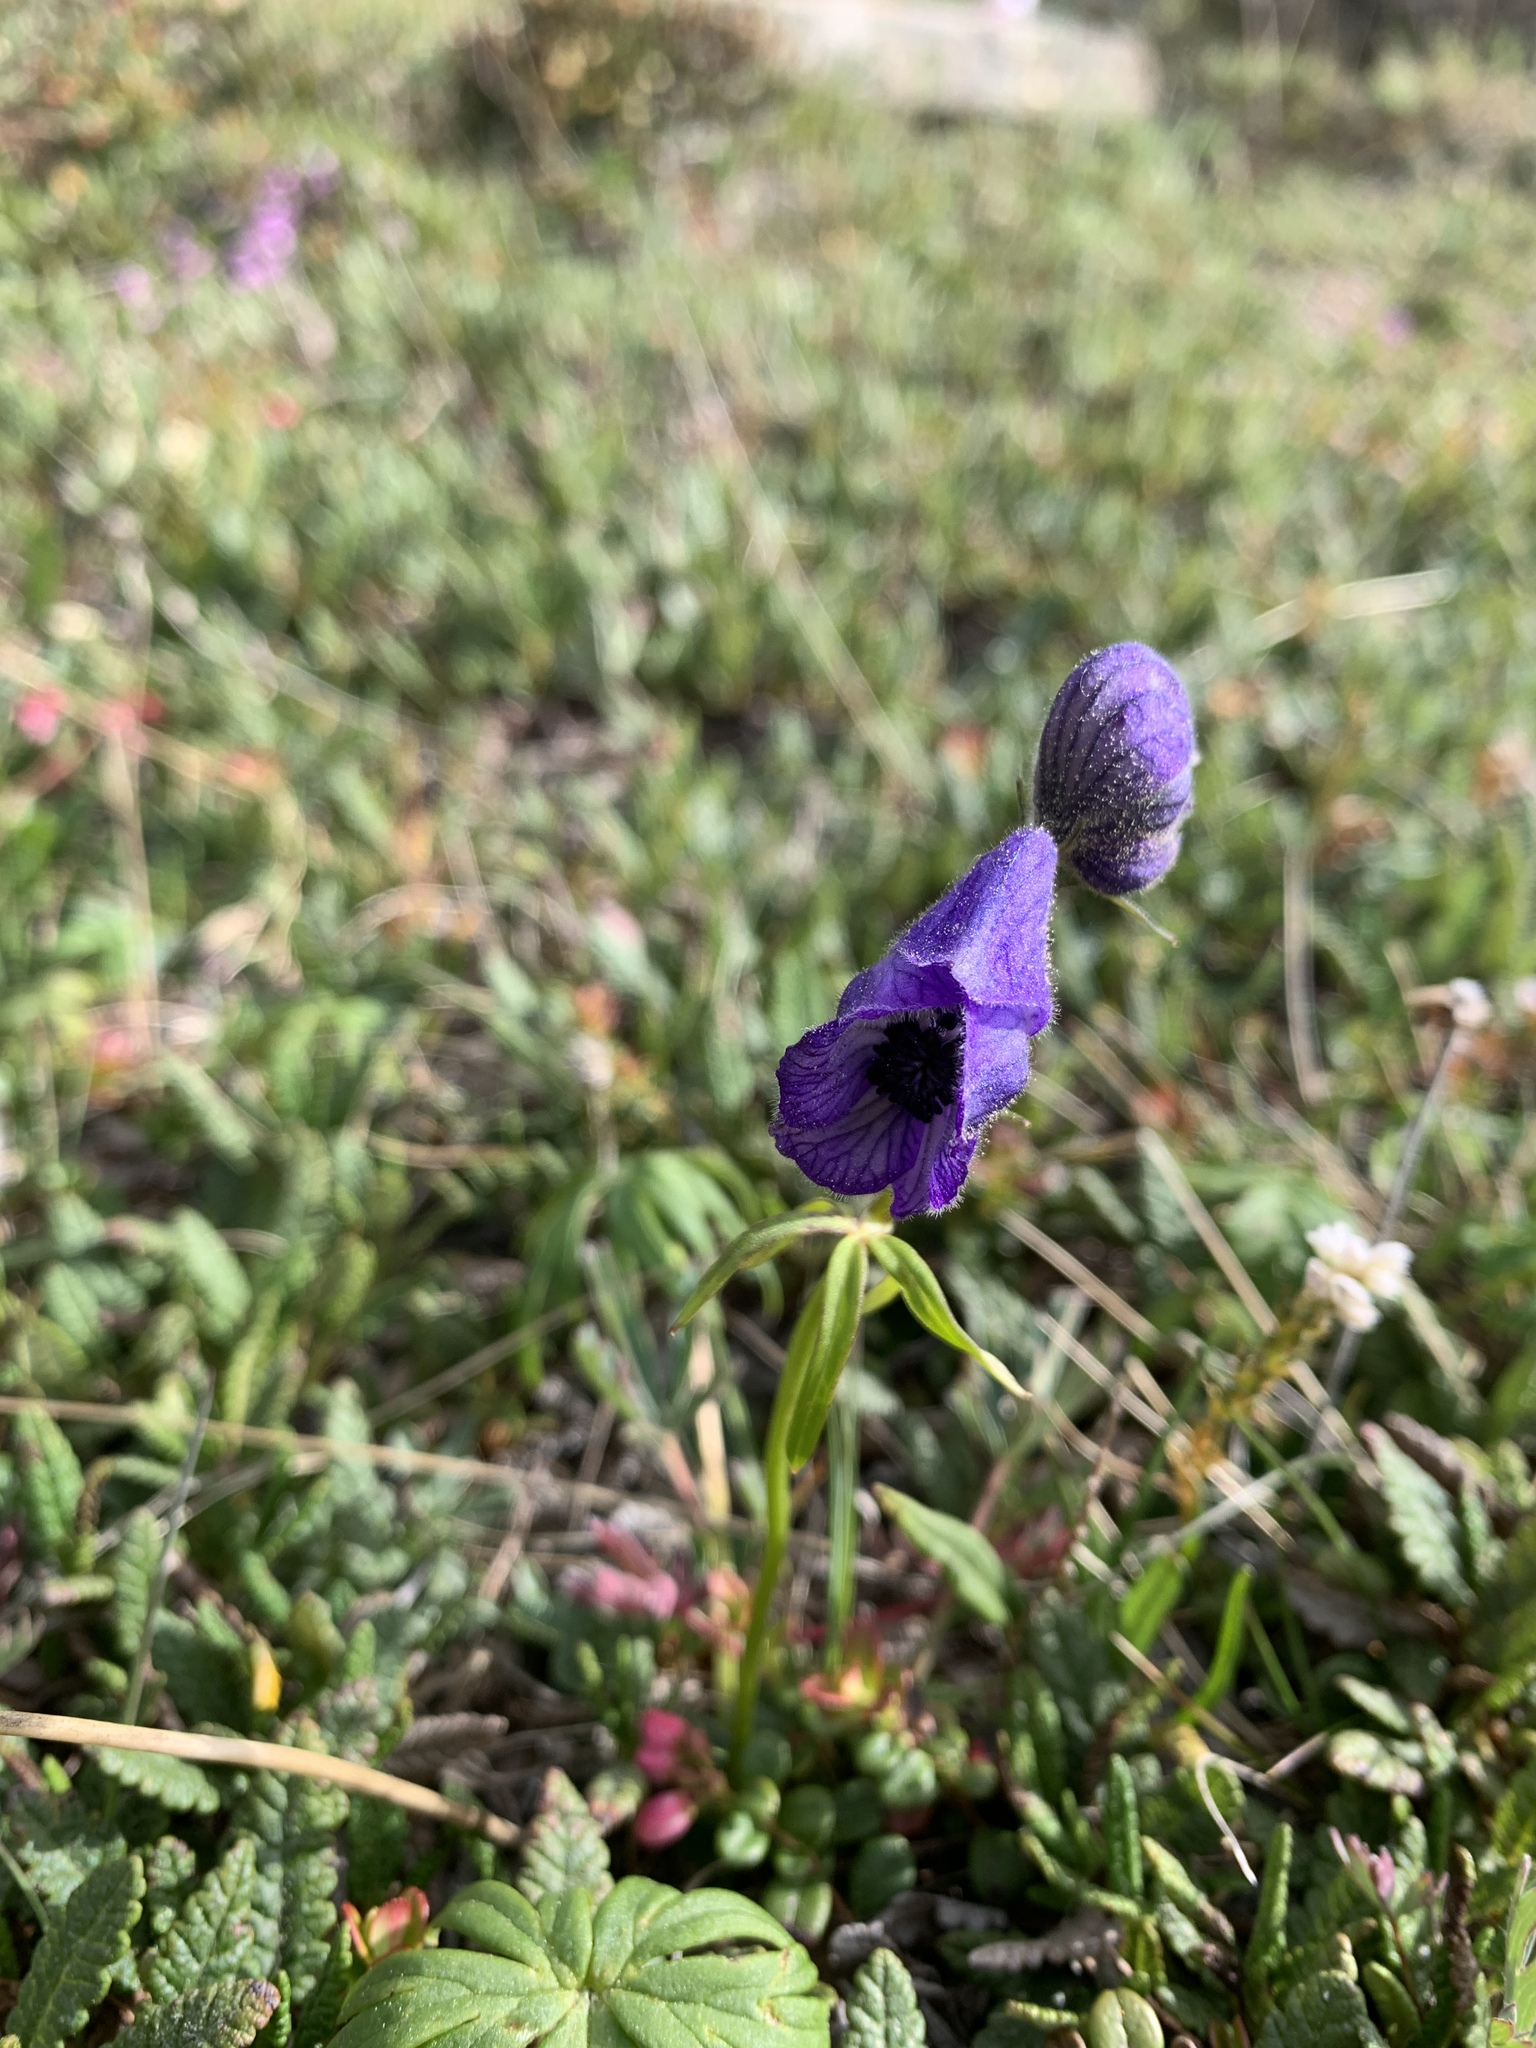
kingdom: Plantae
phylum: Tracheophyta
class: Magnoliopsida
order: Ranunculales
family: Ranunculaceae
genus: Aconitum
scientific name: Aconitum delphiniifolium
